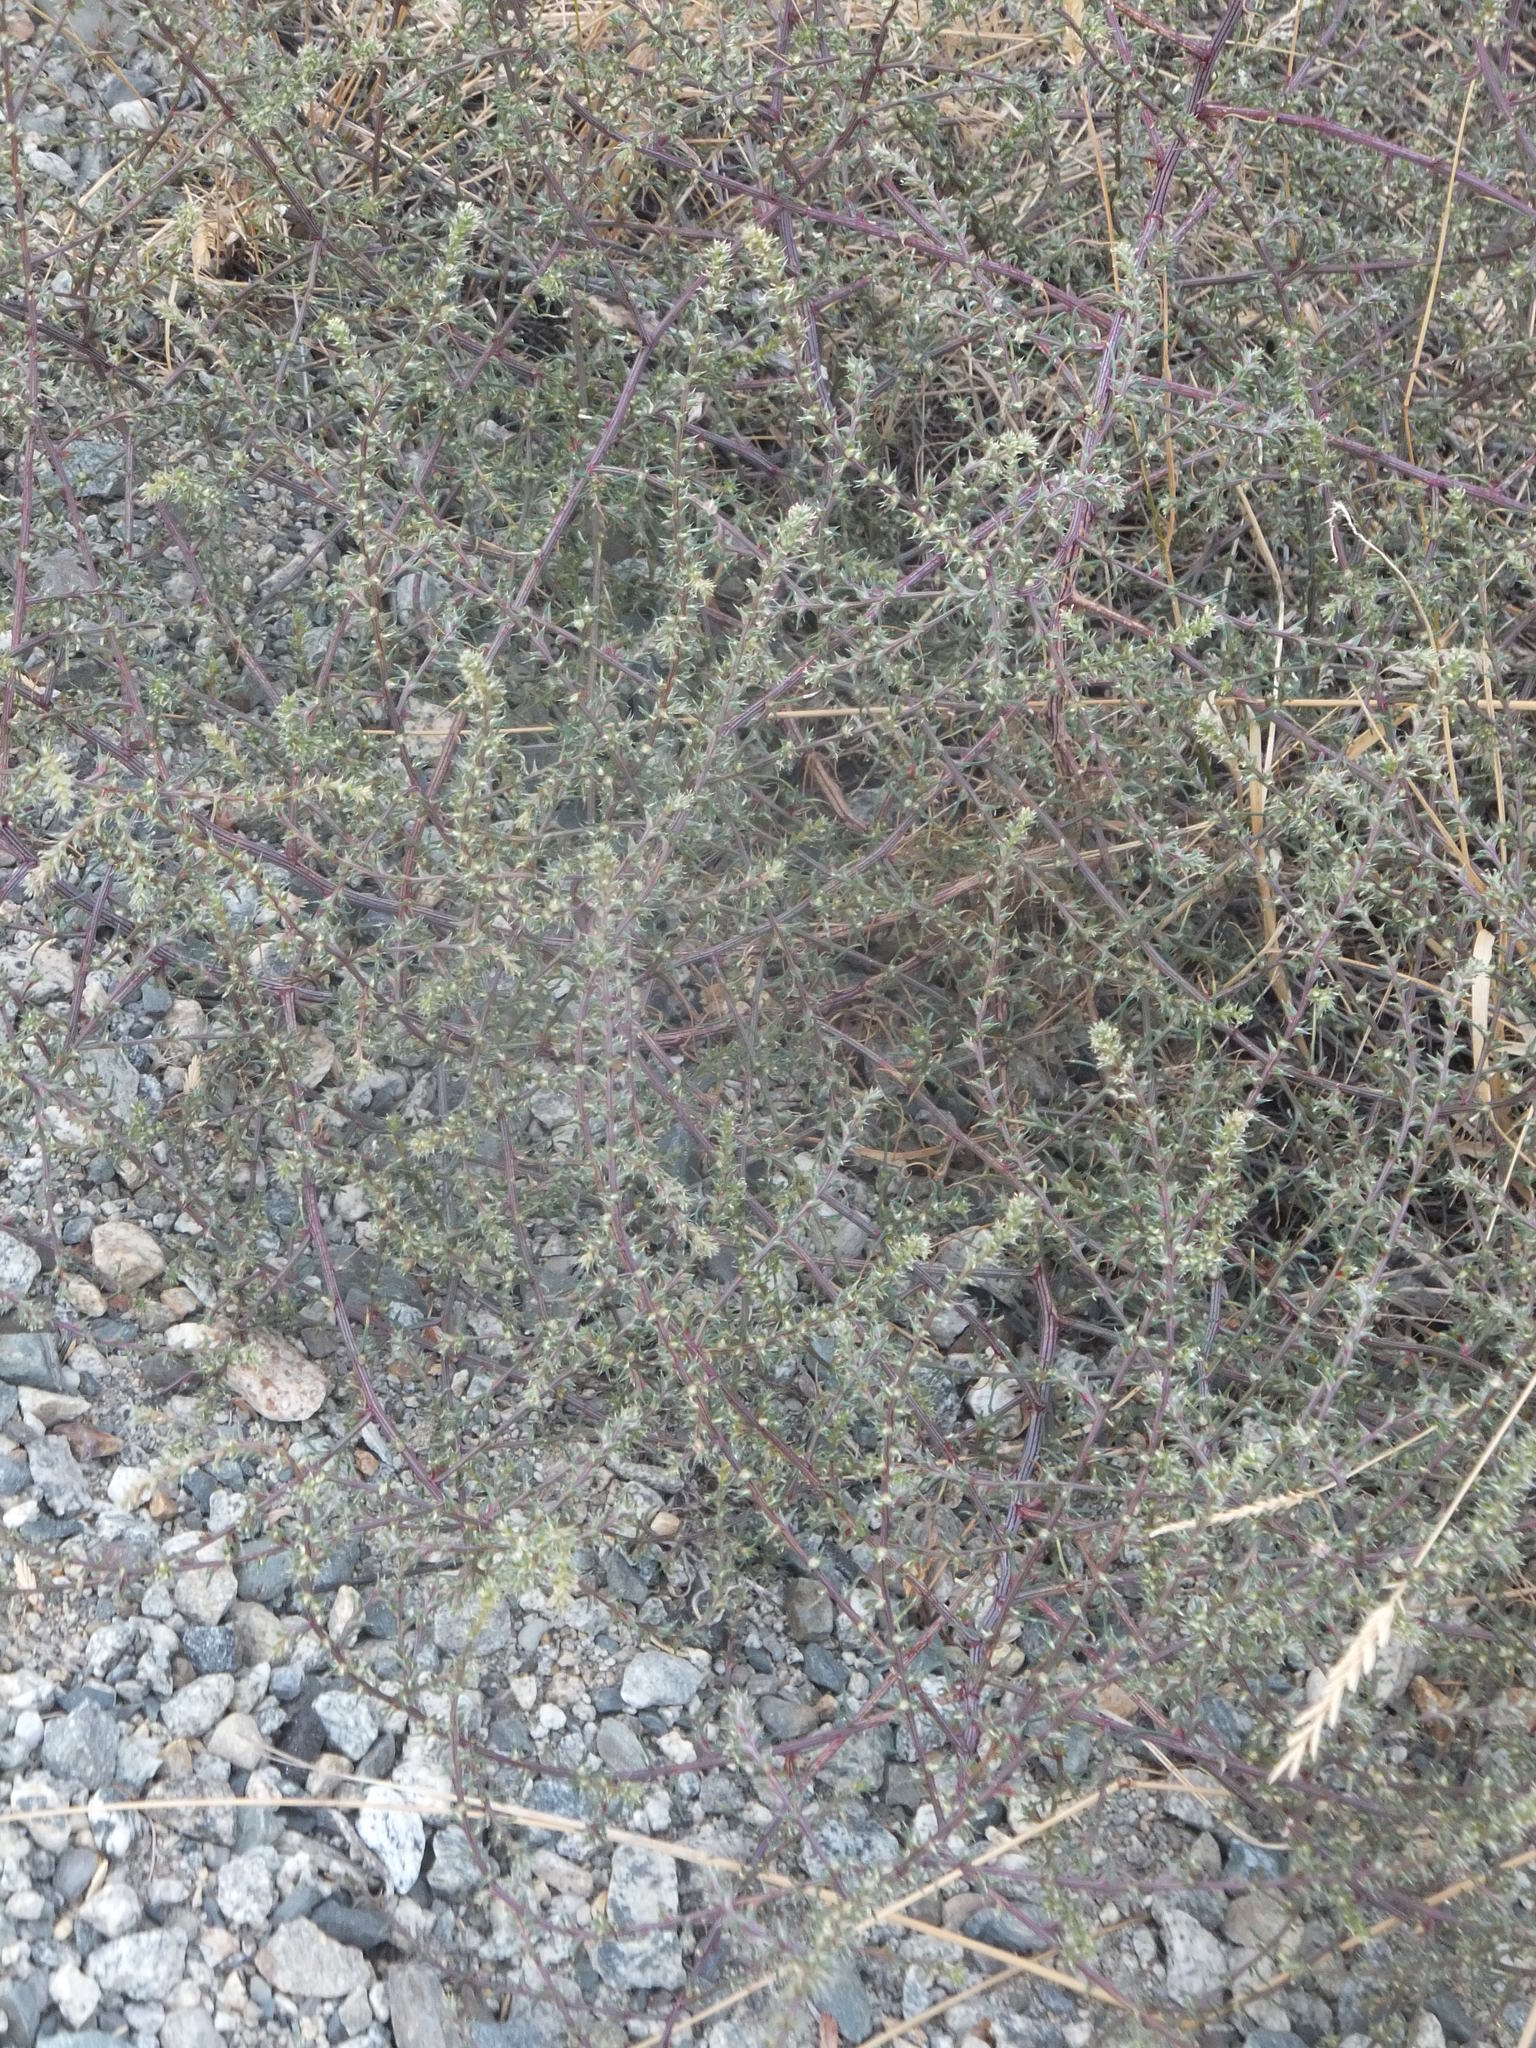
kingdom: Plantae
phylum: Tracheophyta
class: Magnoliopsida
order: Caryophyllales
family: Amaranthaceae
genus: Salsola
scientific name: Salsola tragus
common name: Prickly russian thistle
